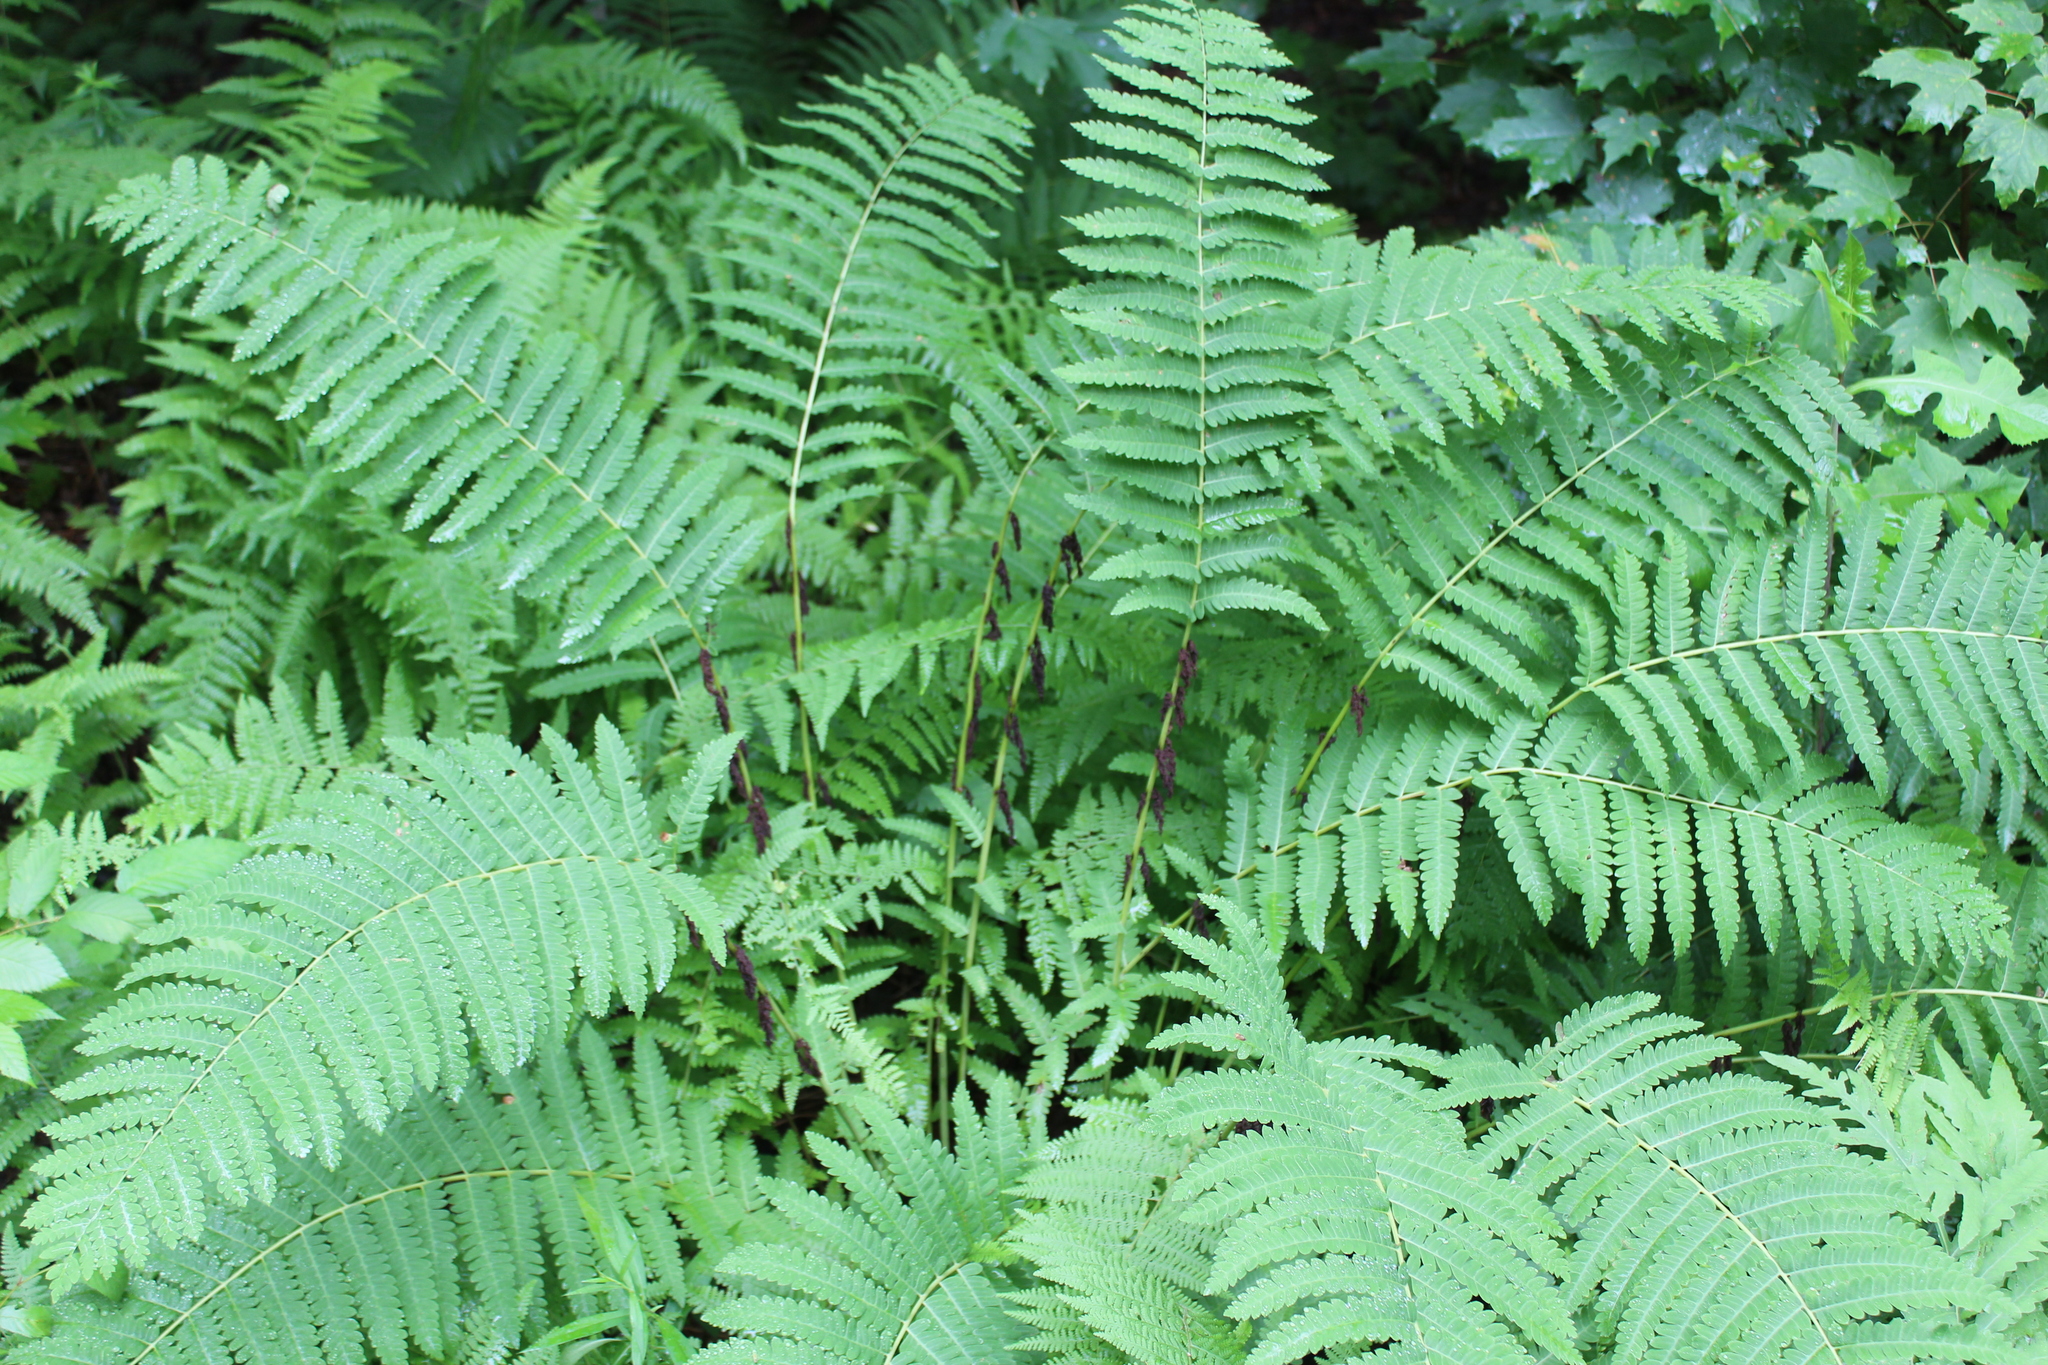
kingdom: Plantae
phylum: Tracheophyta
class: Polypodiopsida
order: Osmundales
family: Osmundaceae
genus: Claytosmunda
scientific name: Claytosmunda claytoniana
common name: Clayton's fern
